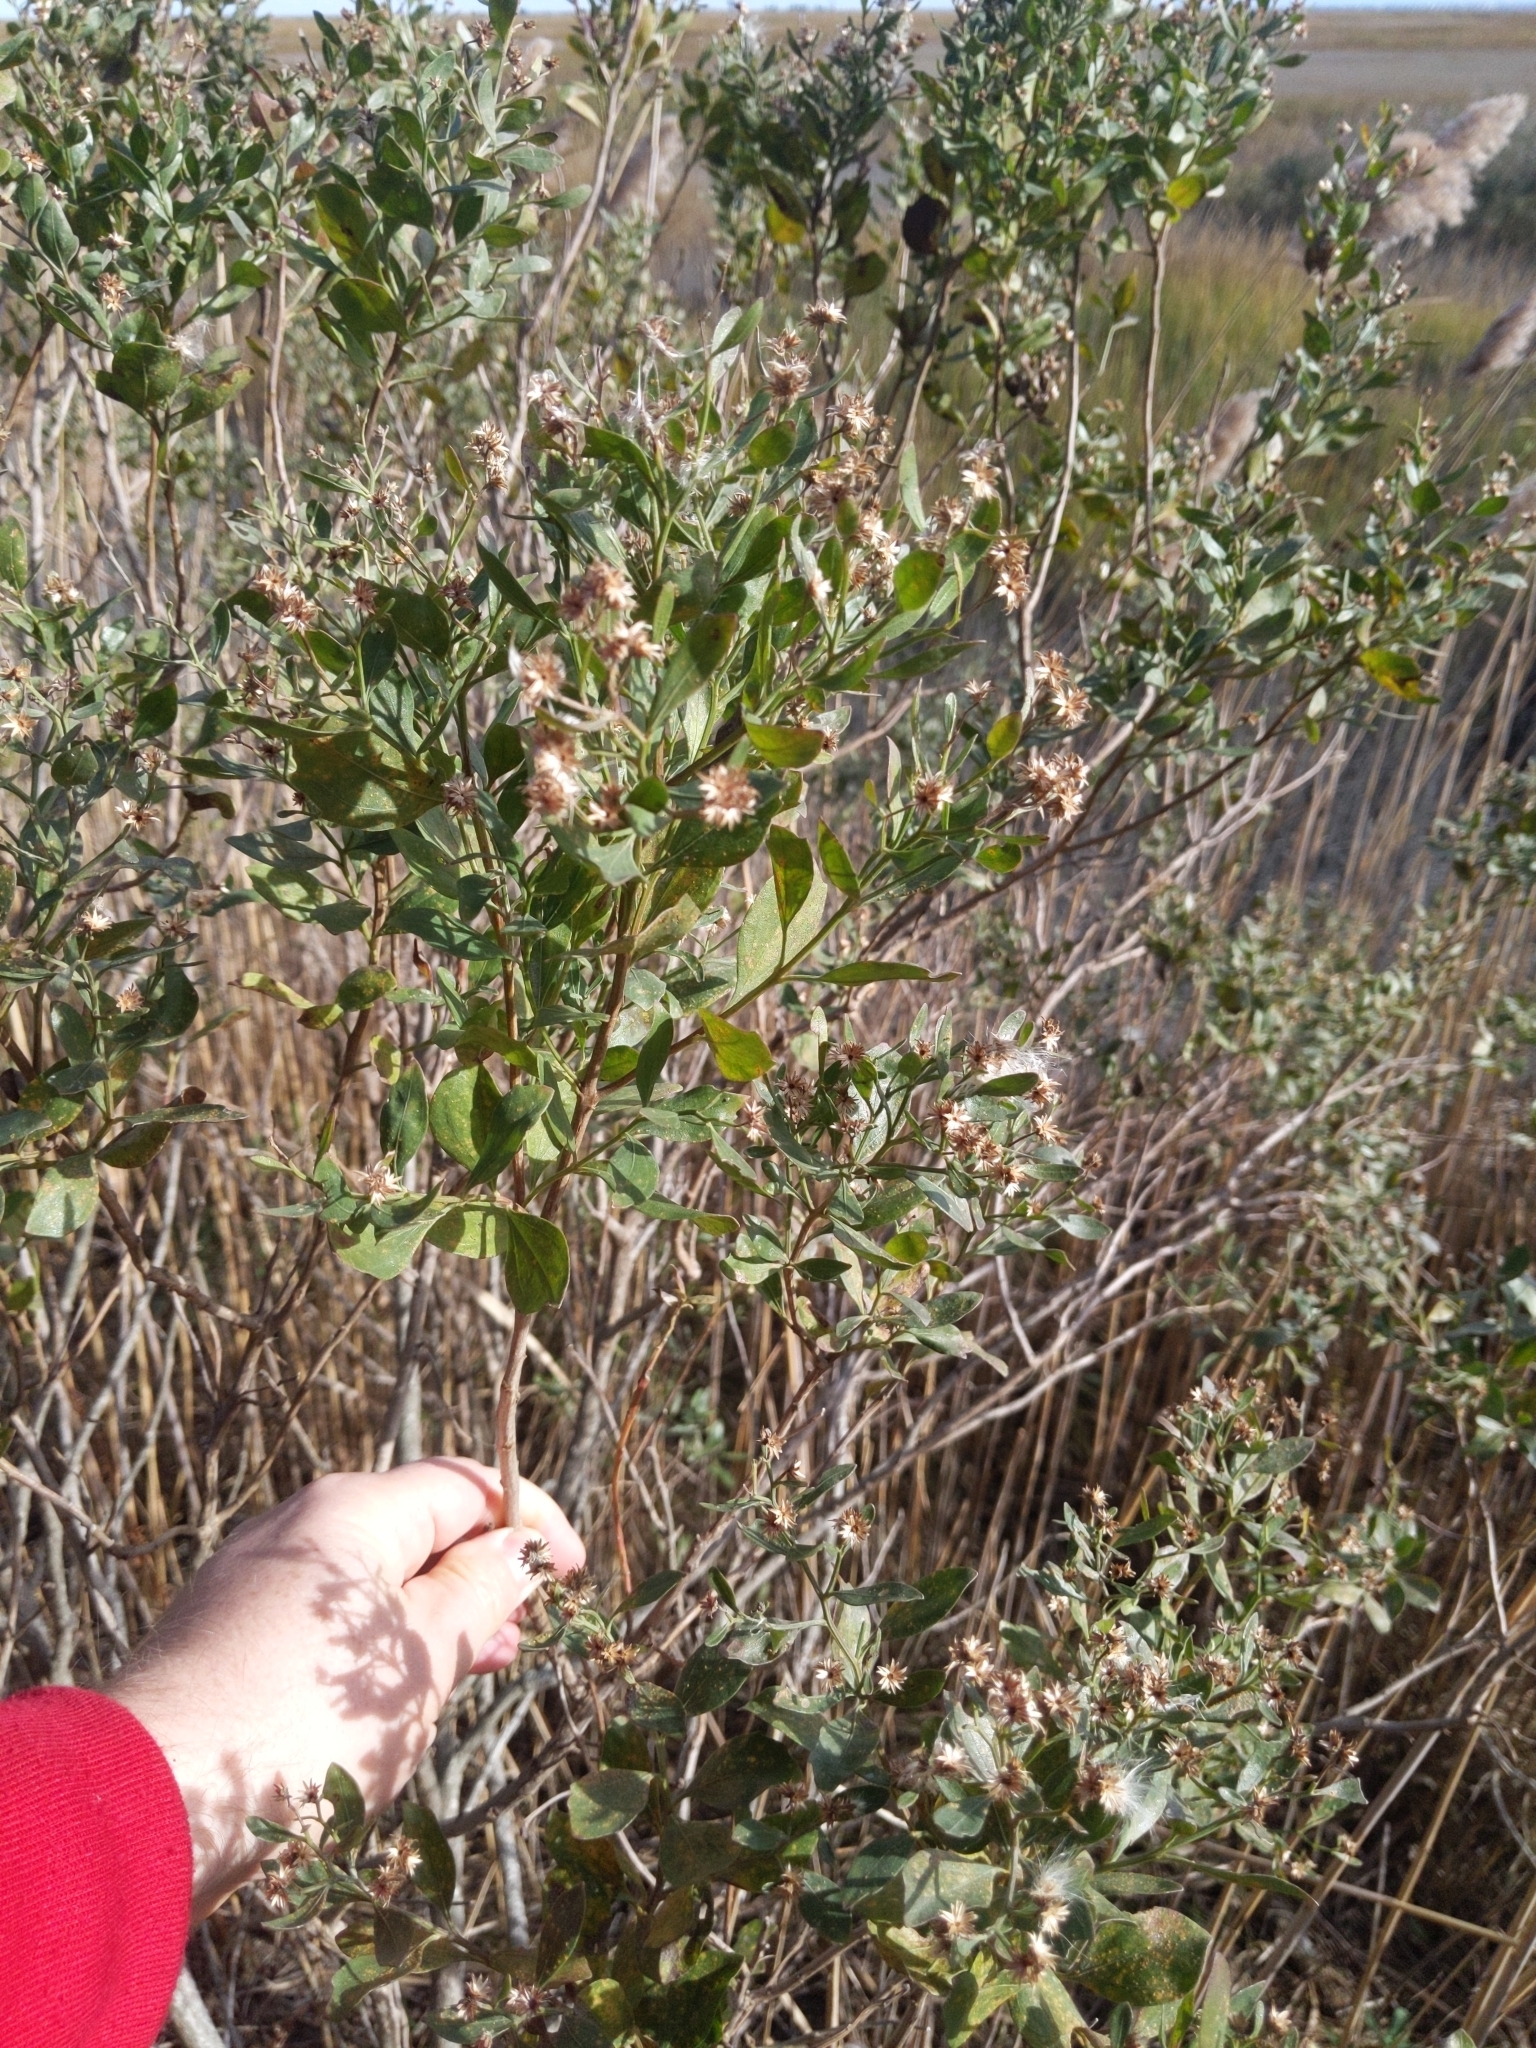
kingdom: Plantae
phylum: Tracheophyta
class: Magnoliopsida
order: Asterales
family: Asteraceae
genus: Baccharis
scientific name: Baccharis halimifolia
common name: Eastern baccharis
